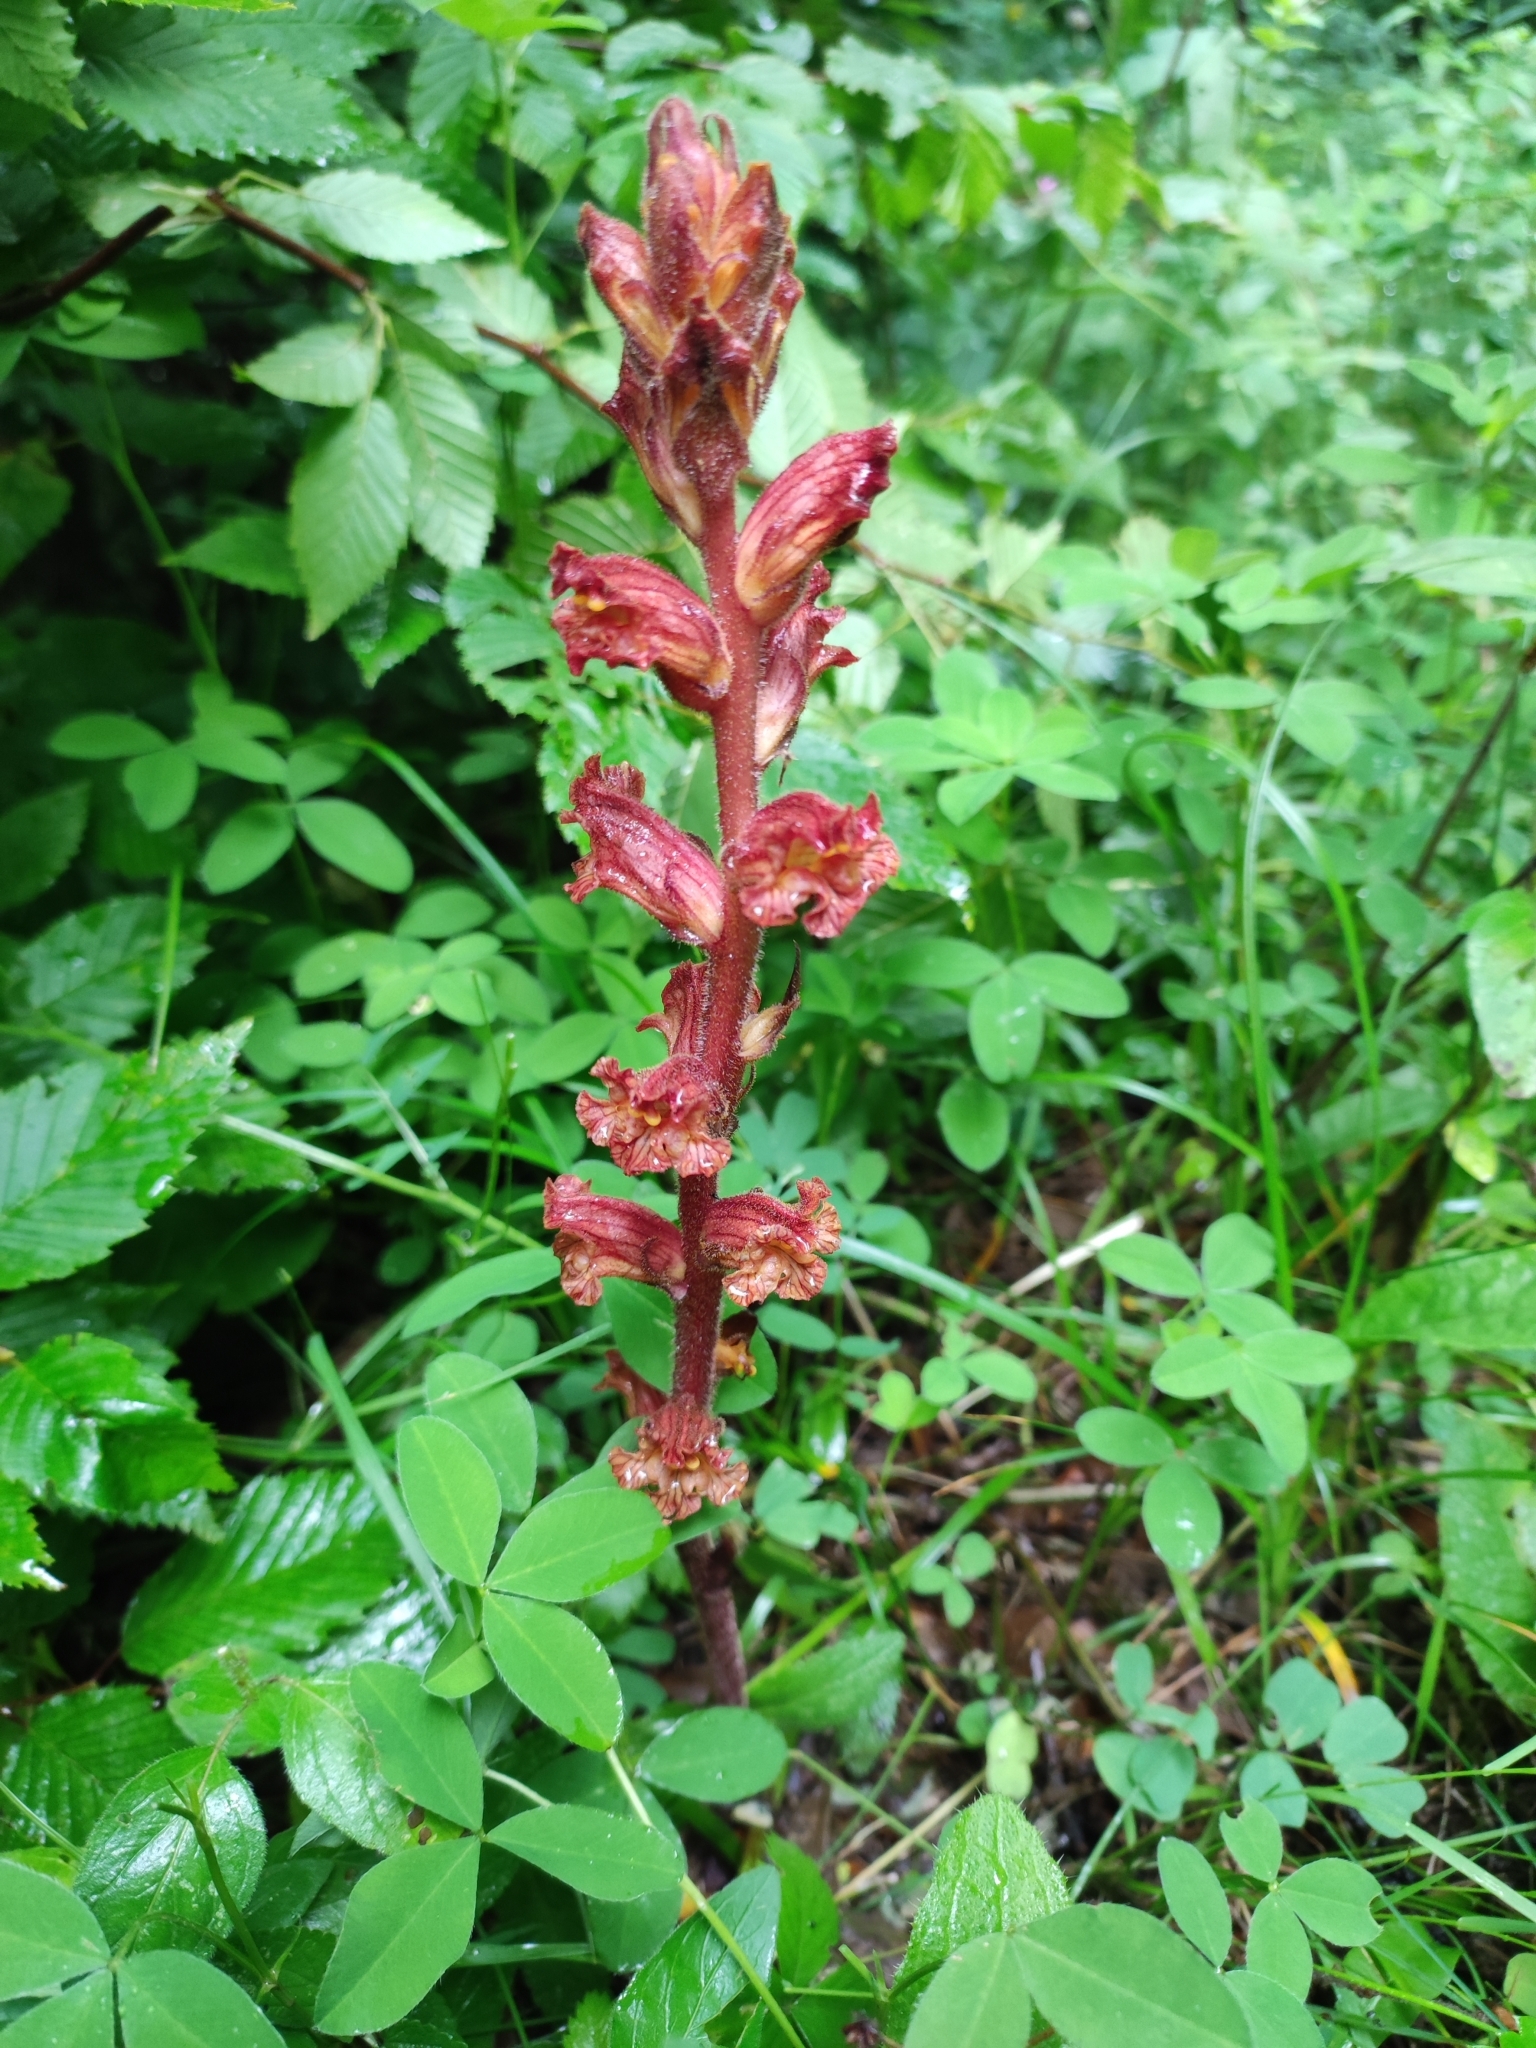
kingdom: Plantae
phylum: Tracheophyta
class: Magnoliopsida
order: Lamiales
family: Orobanchaceae
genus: Orobanche
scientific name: Orobanche alba
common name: Thyme broomrape
